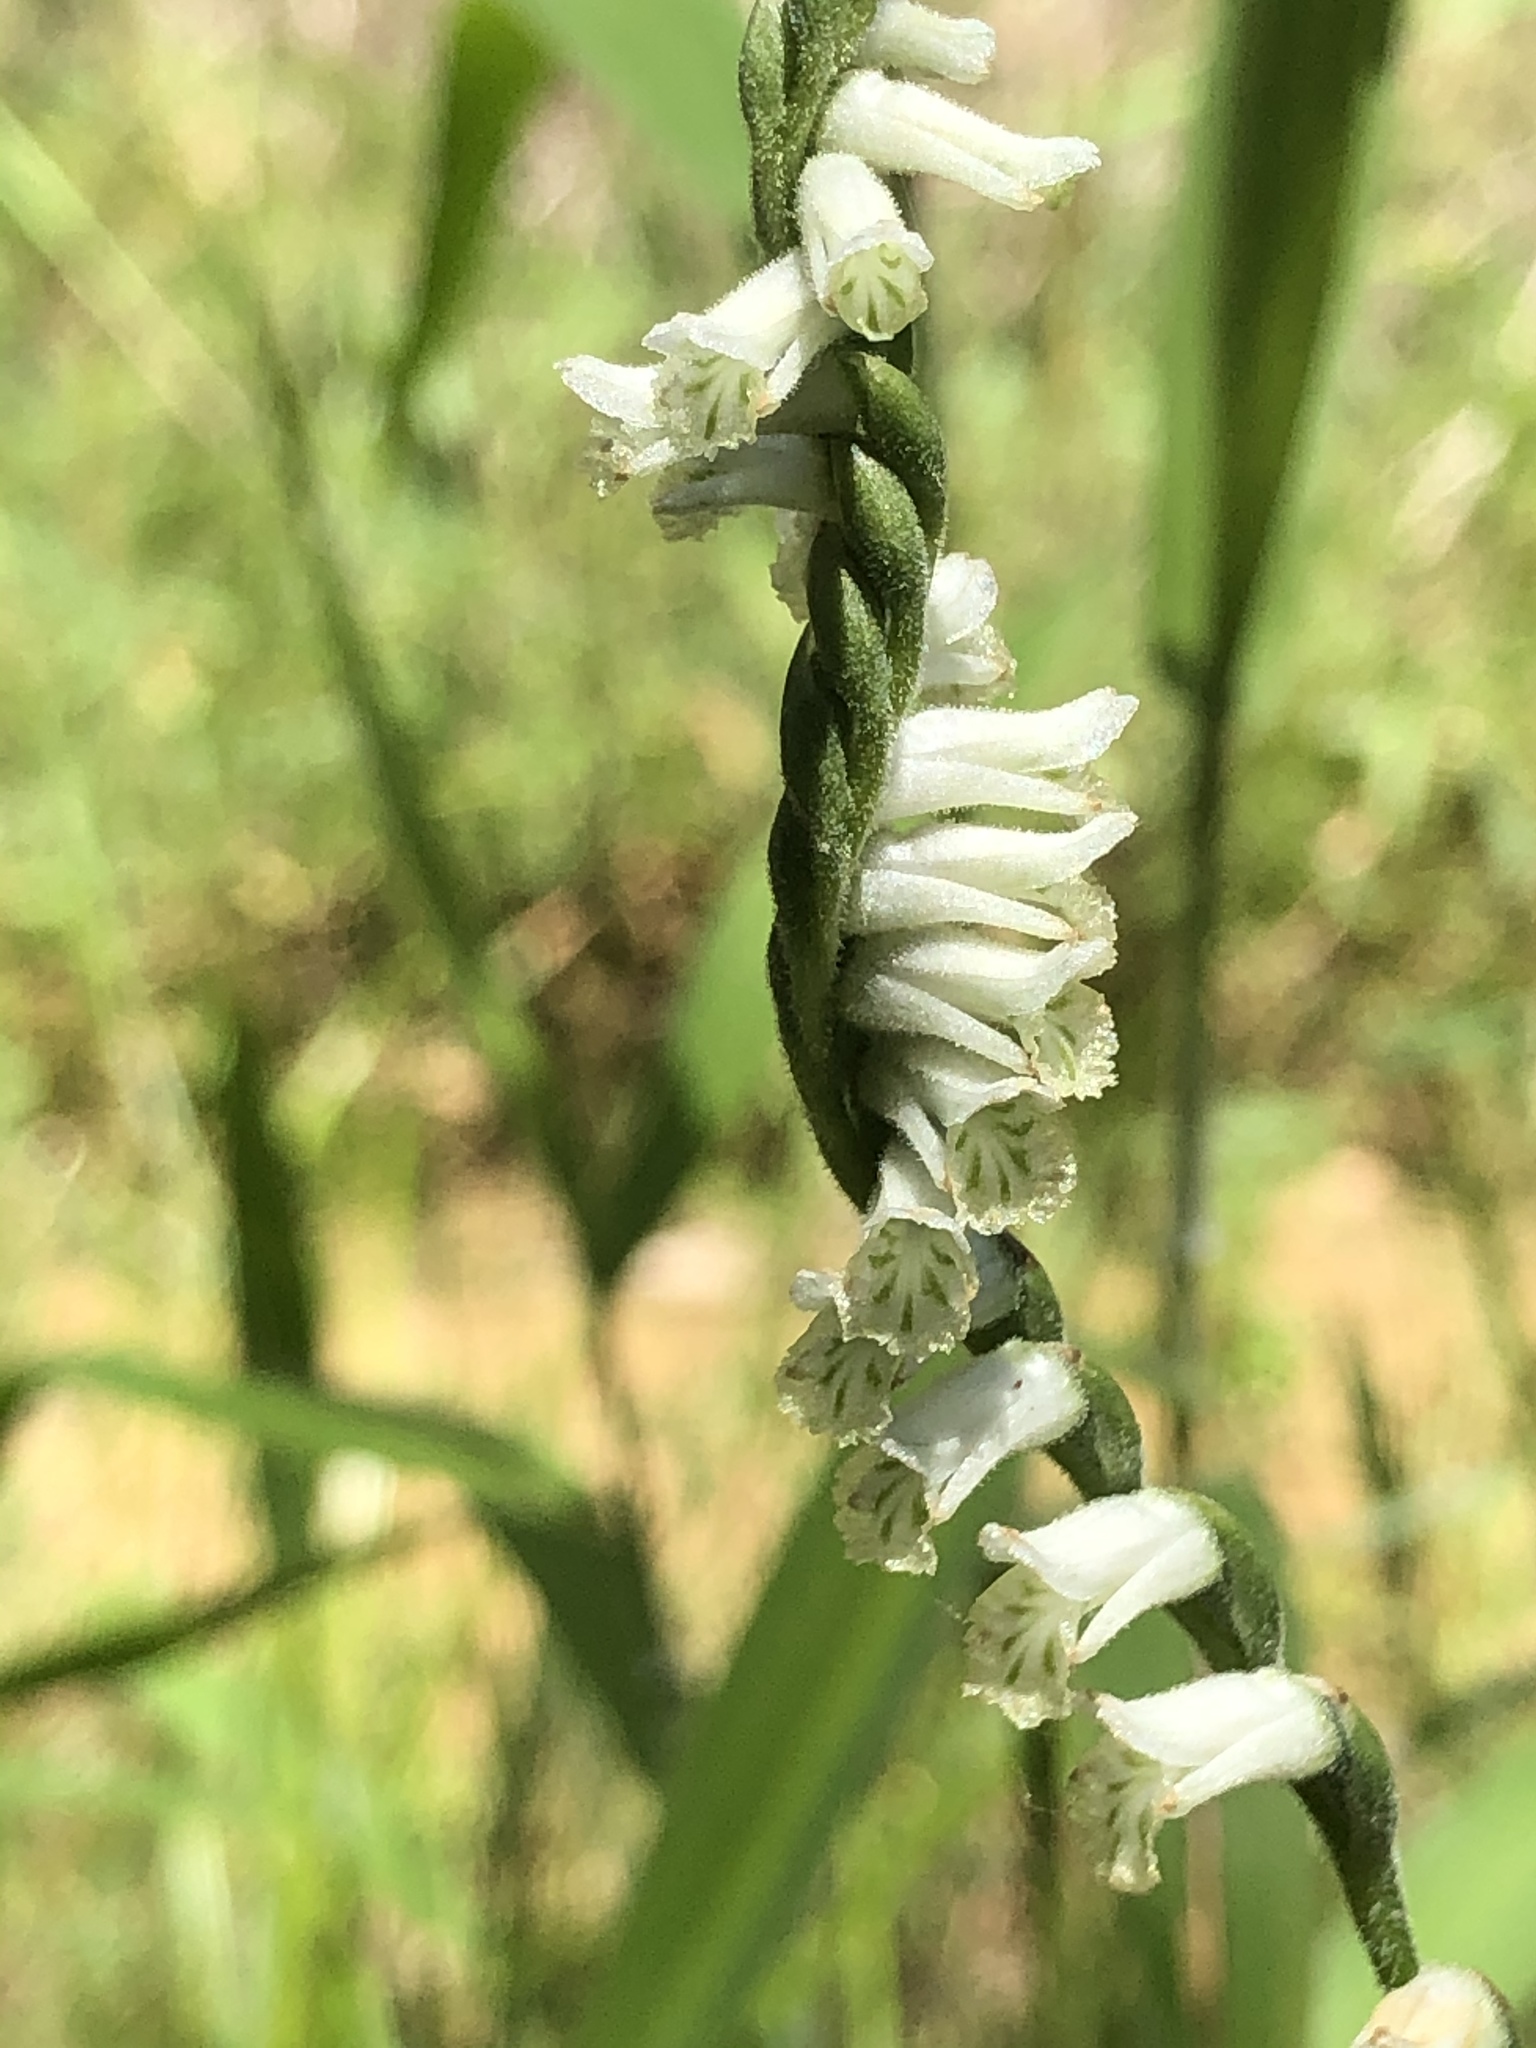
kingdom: Plantae
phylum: Tracheophyta
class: Liliopsida
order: Asparagales
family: Orchidaceae
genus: Spiranthes
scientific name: Spiranthes praecox
